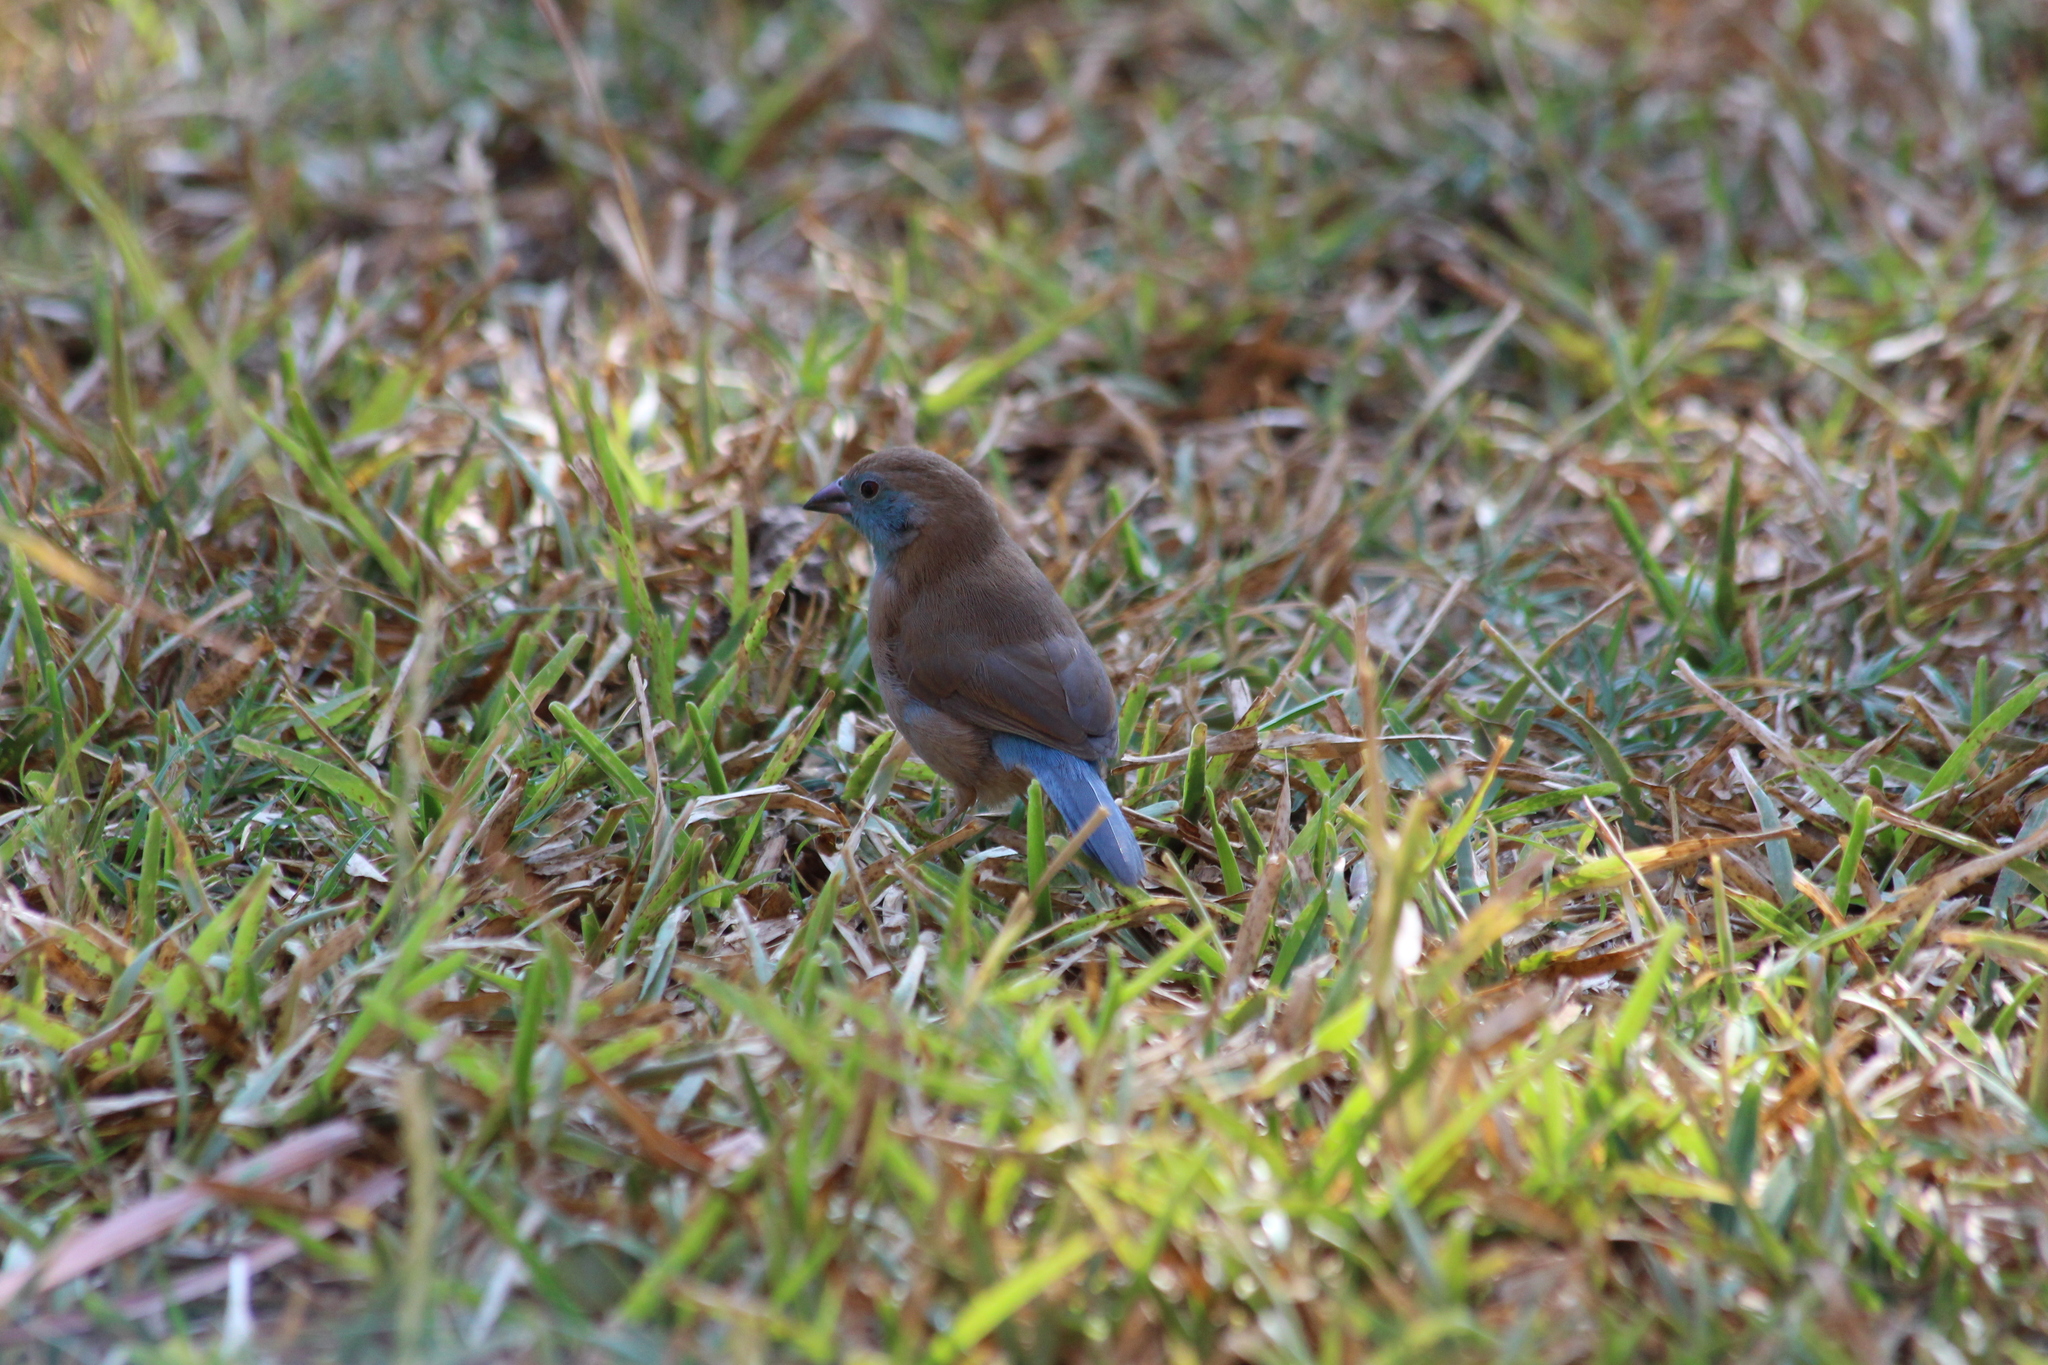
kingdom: Animalia
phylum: Chordata
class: Aves
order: Passeriformes
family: Estrildidae
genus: Uraeginthus
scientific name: Uraeginthus angolensis
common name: Blue waxbill
